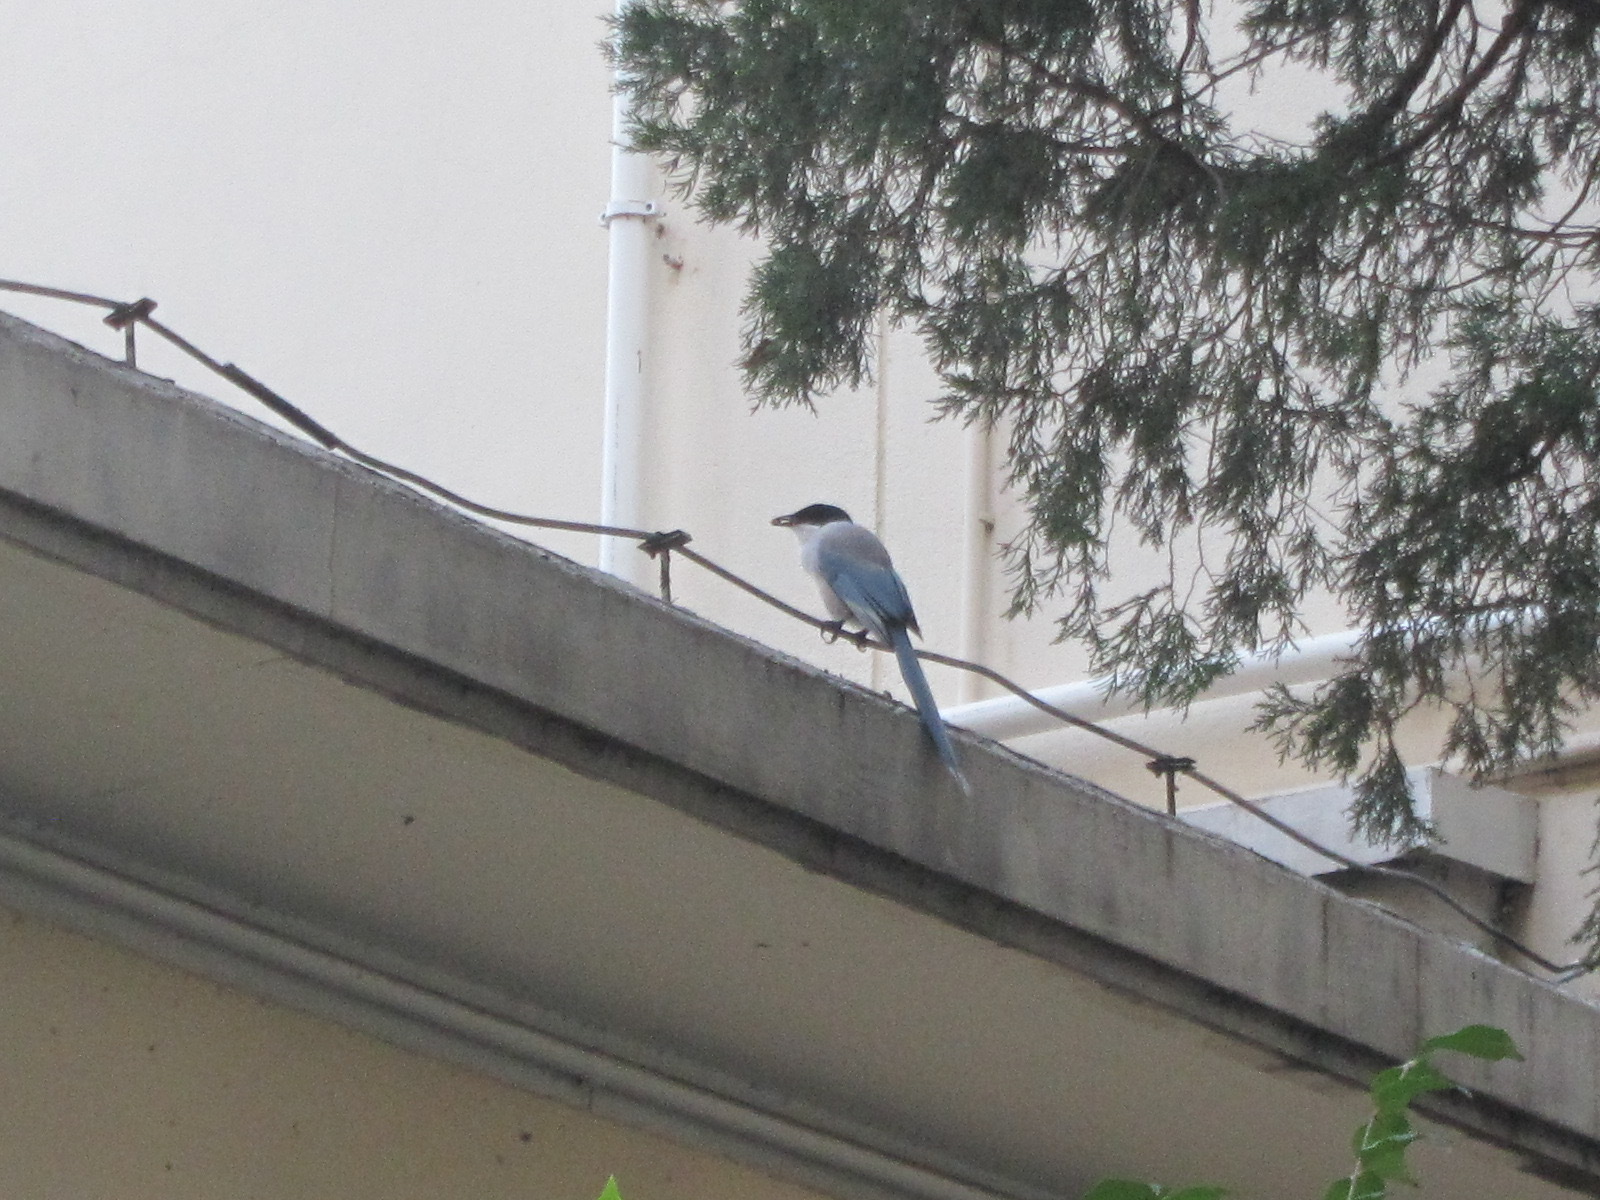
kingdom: Animalia
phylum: Chordata
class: Aves
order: Passeriformes
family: Corvidae
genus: Cyanopica
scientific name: Cyanopica cyanus
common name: Azure-winged magpie
